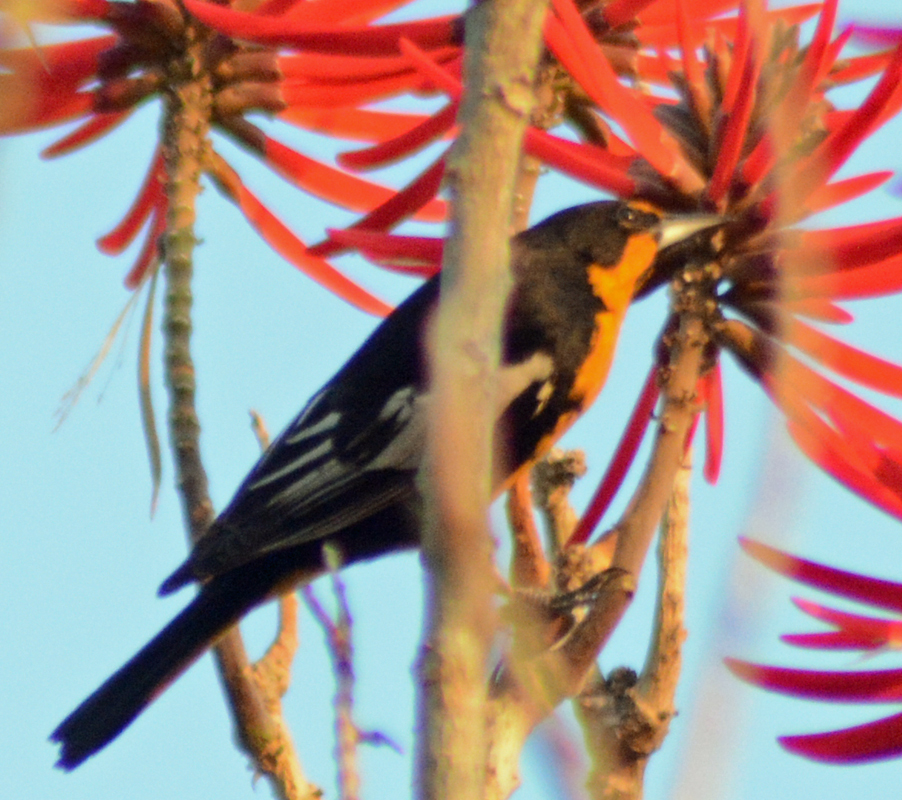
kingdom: Animalia
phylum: Chordata
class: Aves
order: Passeriformes
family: Icteridae
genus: Icterus
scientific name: Icterus abeillei
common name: Black-backed oriole
